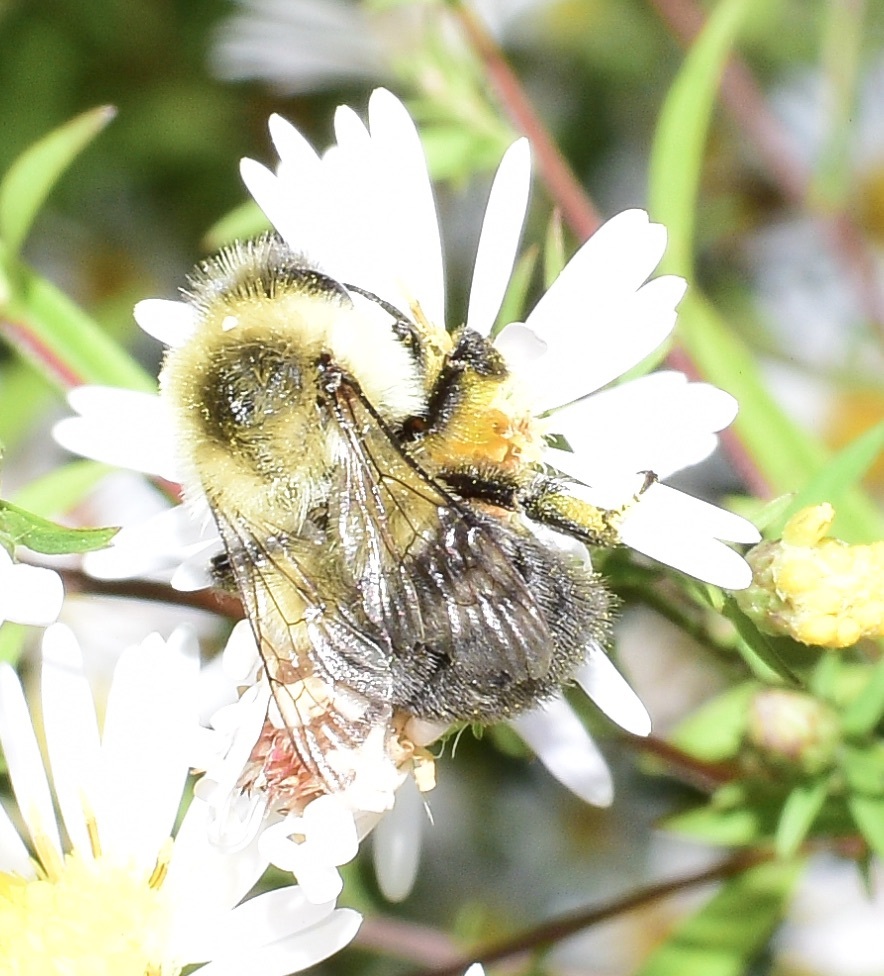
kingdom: Animalia
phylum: Arthropoda
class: Insecta
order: Hymenoptera
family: Apidae
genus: Bombus
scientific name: Bombus impatiens
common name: Common eastern bumble bee
